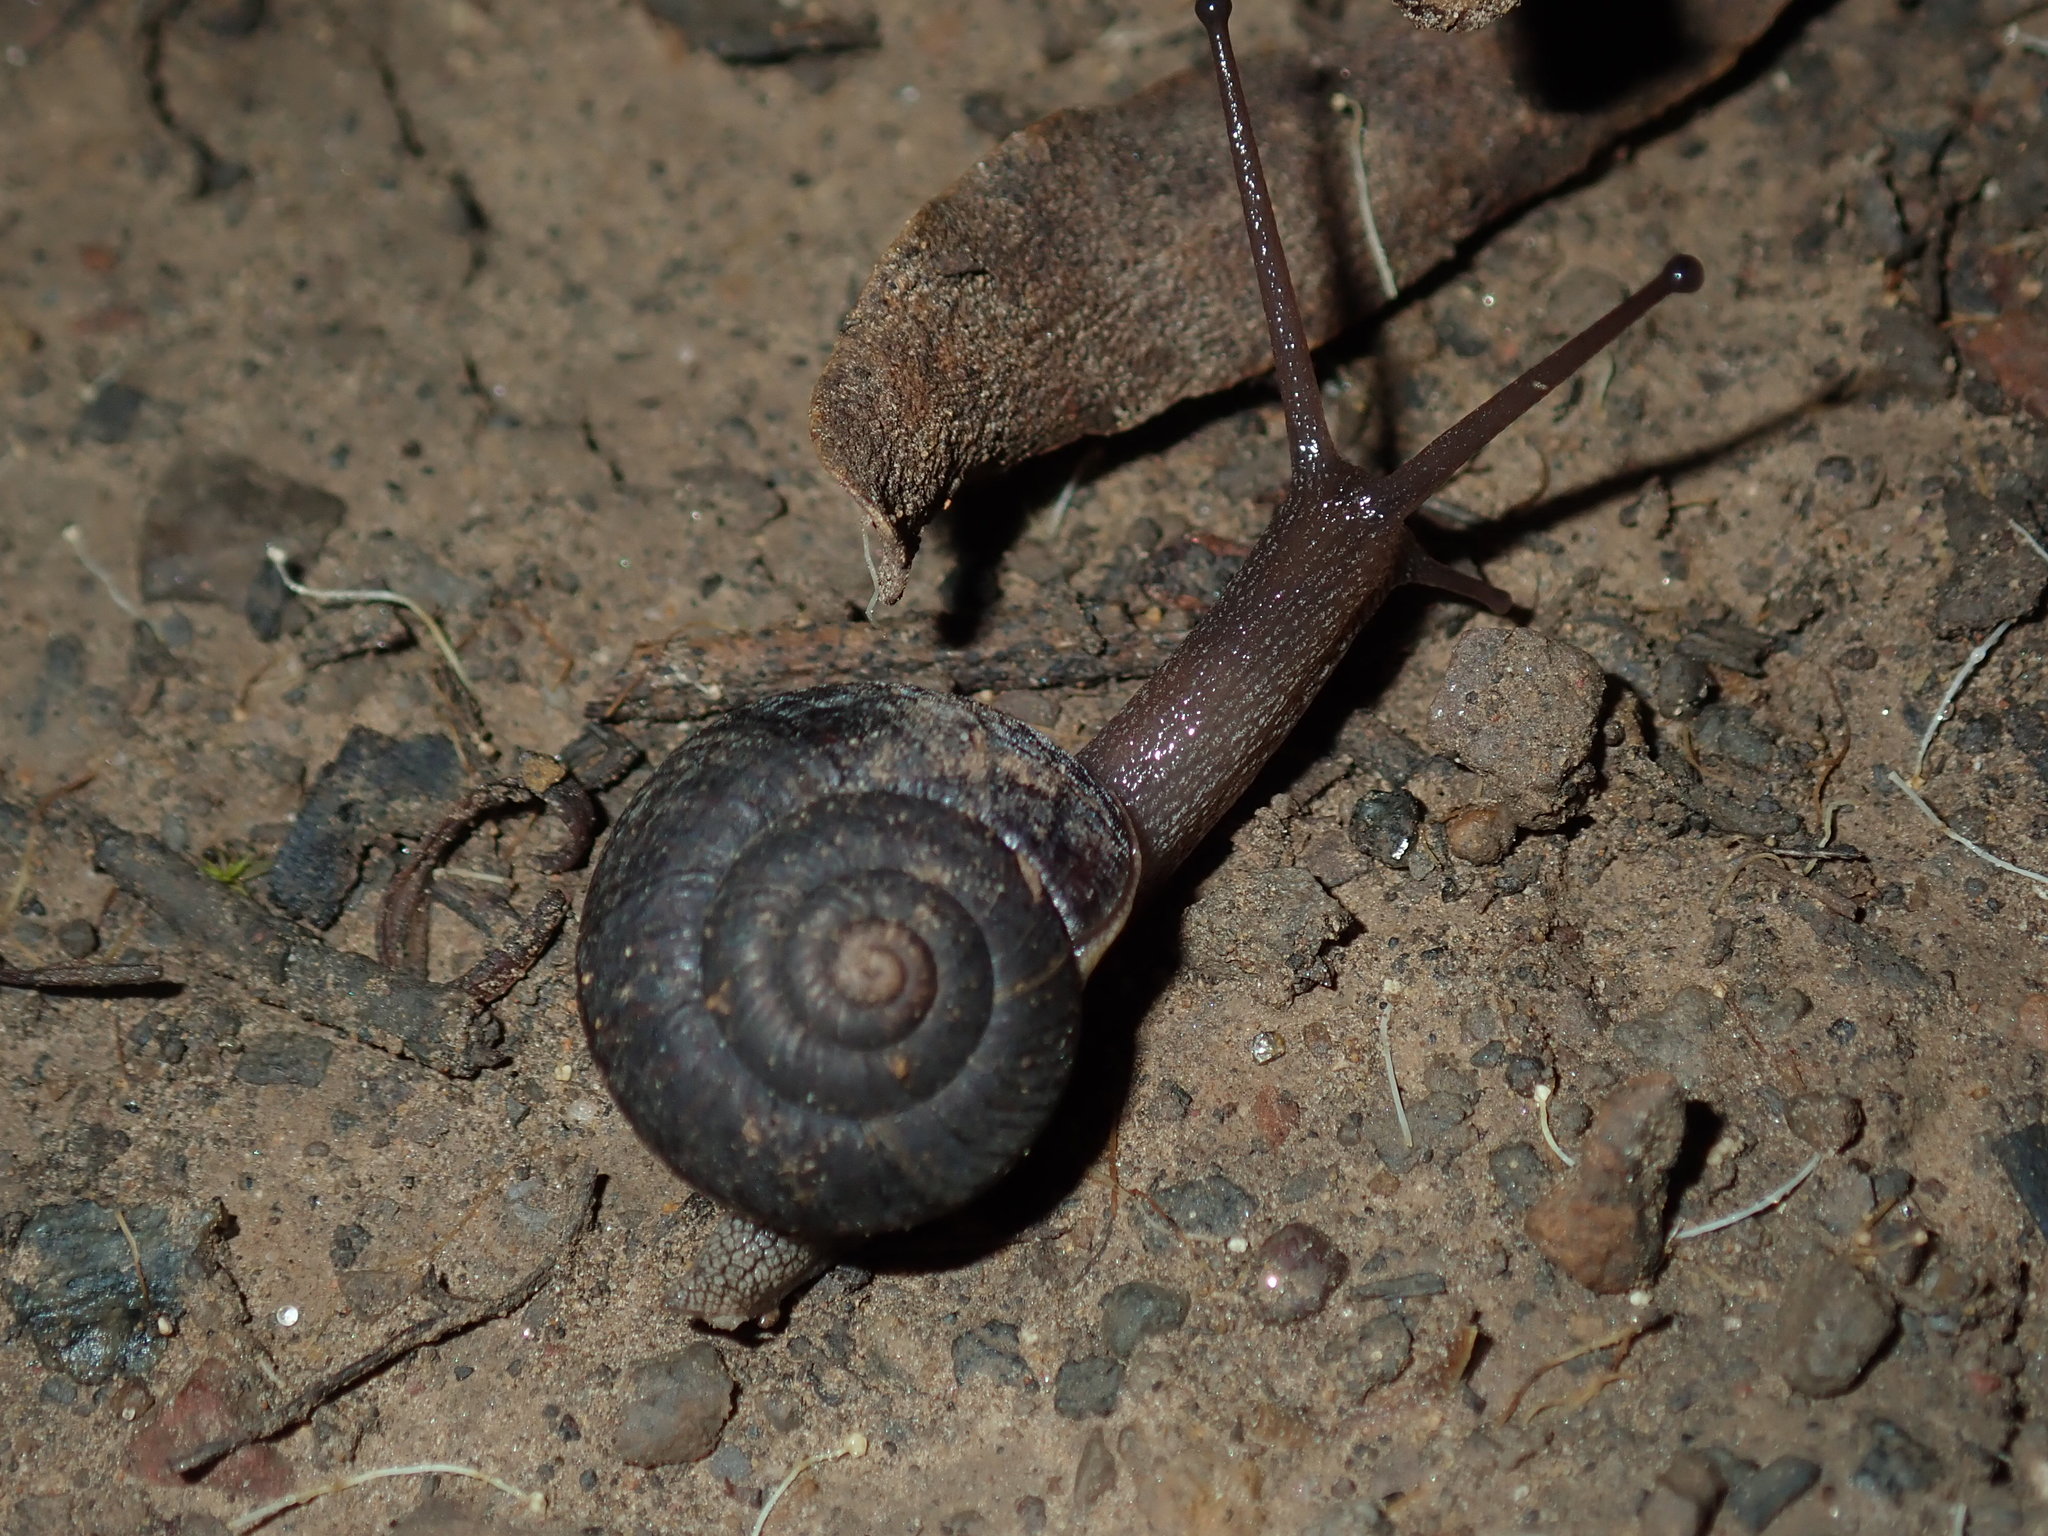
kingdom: Animalia
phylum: Mollusca
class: Gastropoda
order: Stylommatophora
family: Camaenidae
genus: Sauroconcha
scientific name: Sauroconcha sheai
